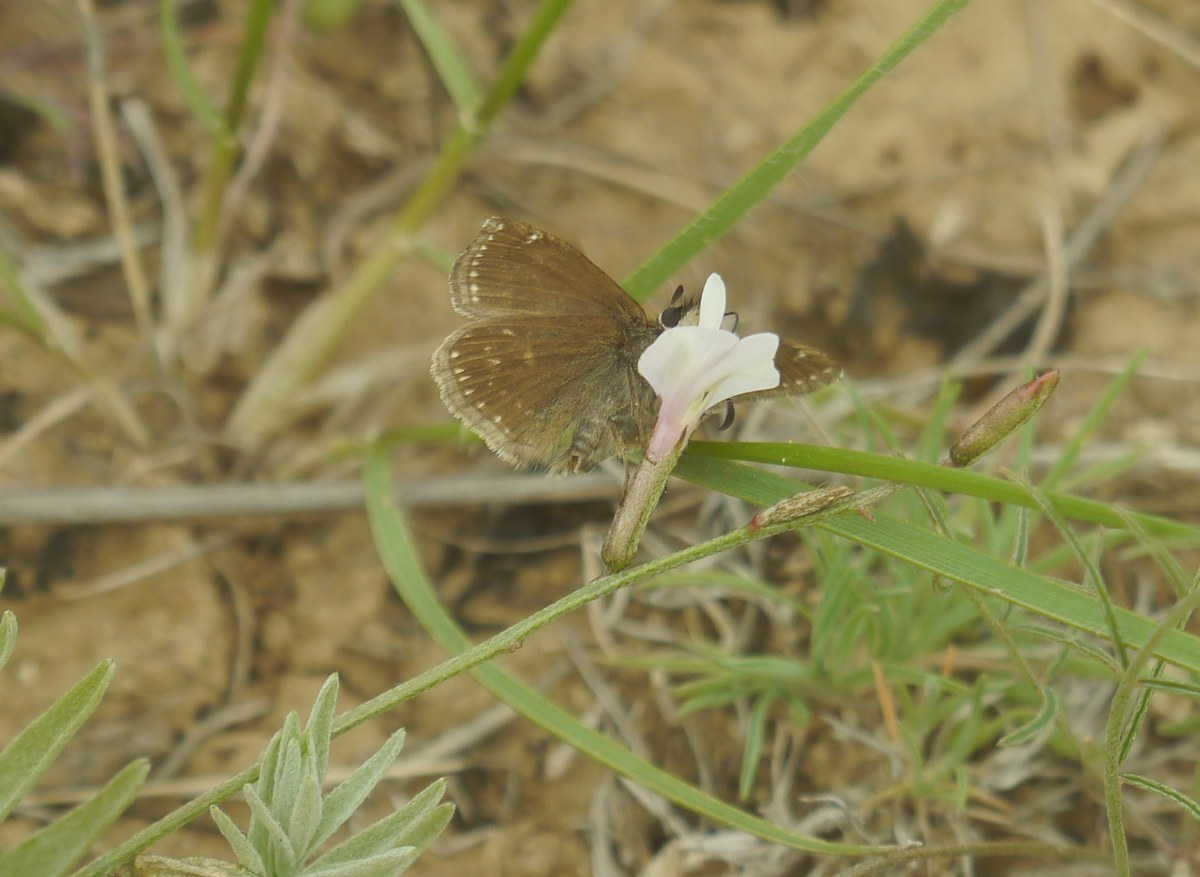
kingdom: Animalia
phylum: Arthropoda
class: Insecta
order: Lepidoptera
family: Hesperiidae
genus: Erynnis
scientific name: Erynnis tages
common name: Dingy skipper
